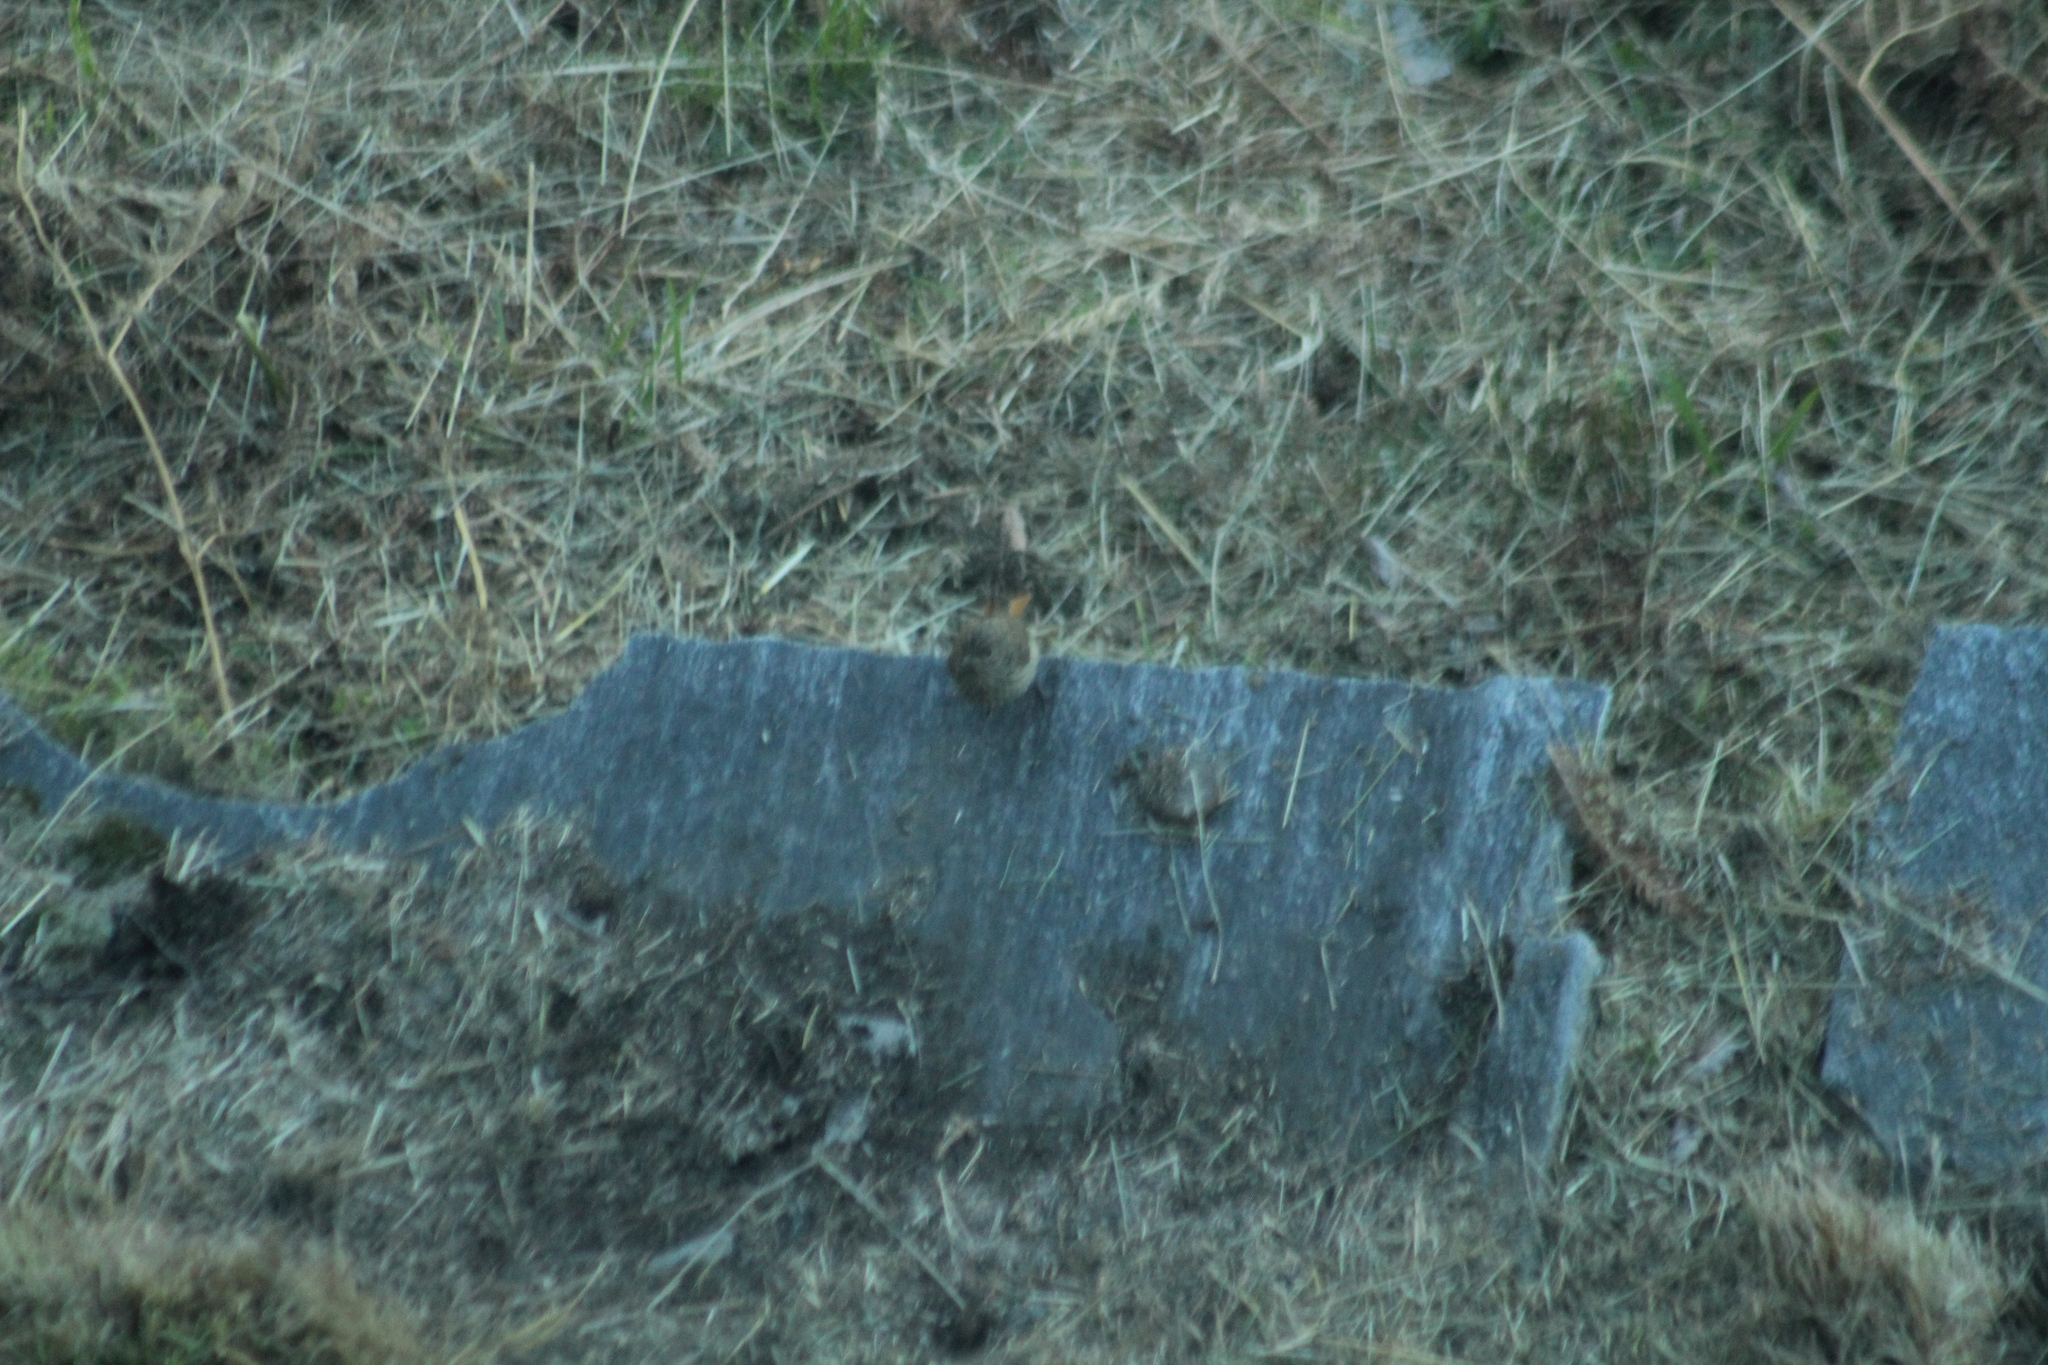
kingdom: Animalia
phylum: Chordata
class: Aves
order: Passeriformes
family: Muscicapidae
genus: Phoenicurus
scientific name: Phoenicurus ochruros
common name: Black redstart
